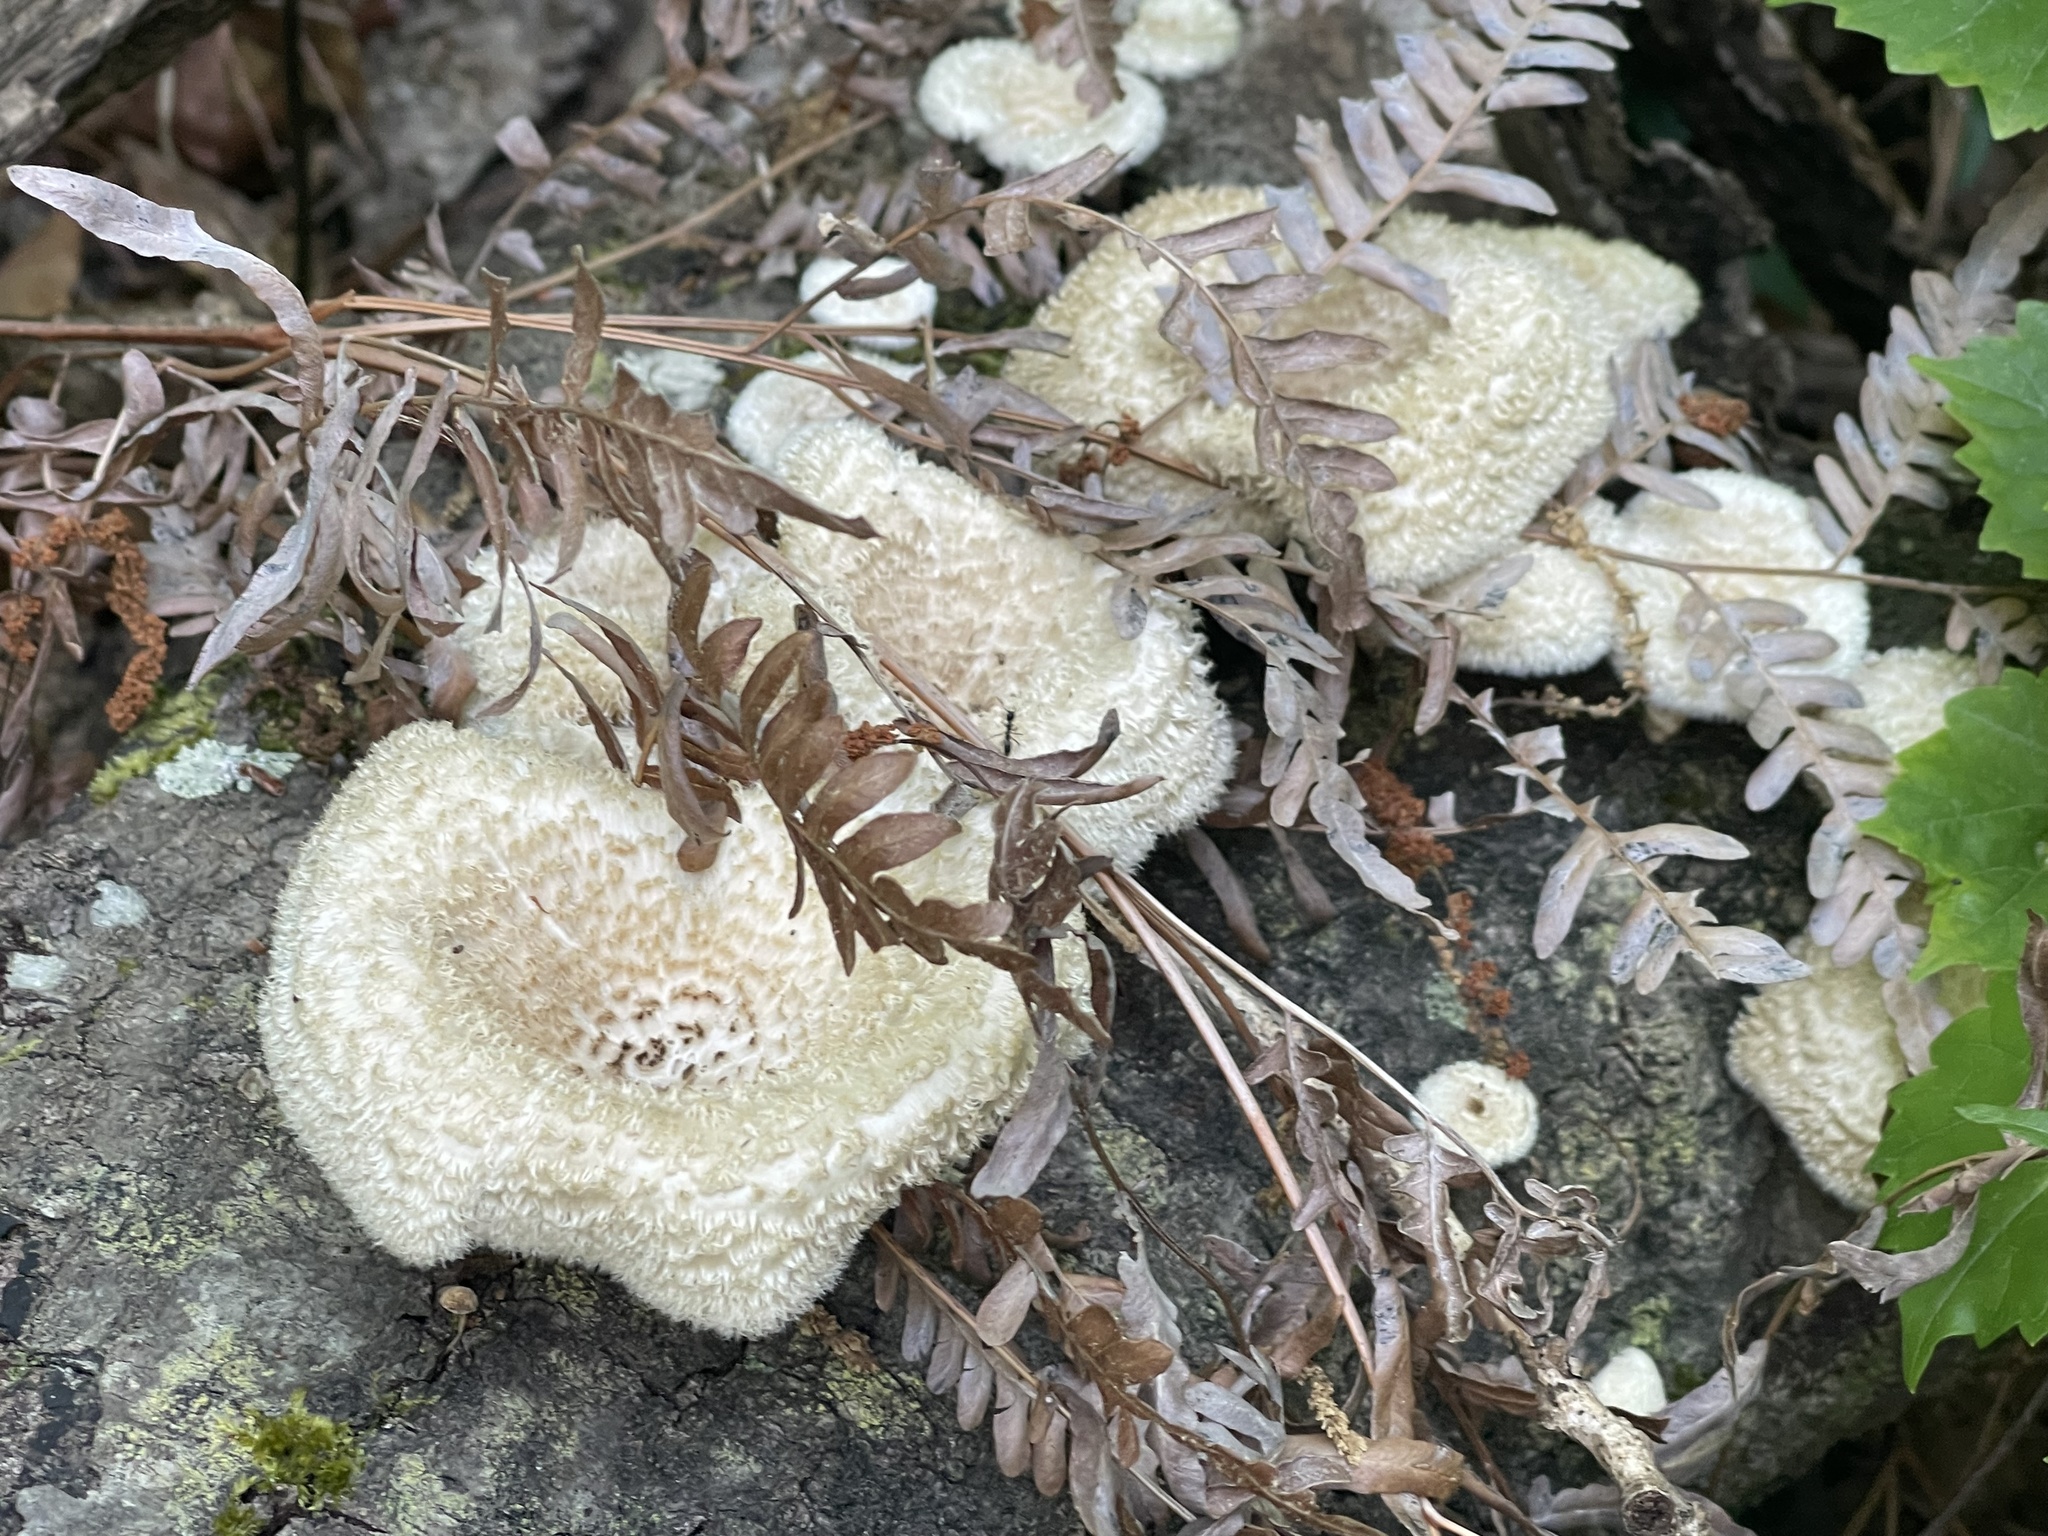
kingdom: Fungi
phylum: Basidiomycota
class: Agaricomycetes
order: Polyporales
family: Polyporaceae
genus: Lentinus
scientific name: Lentinus crinitus
